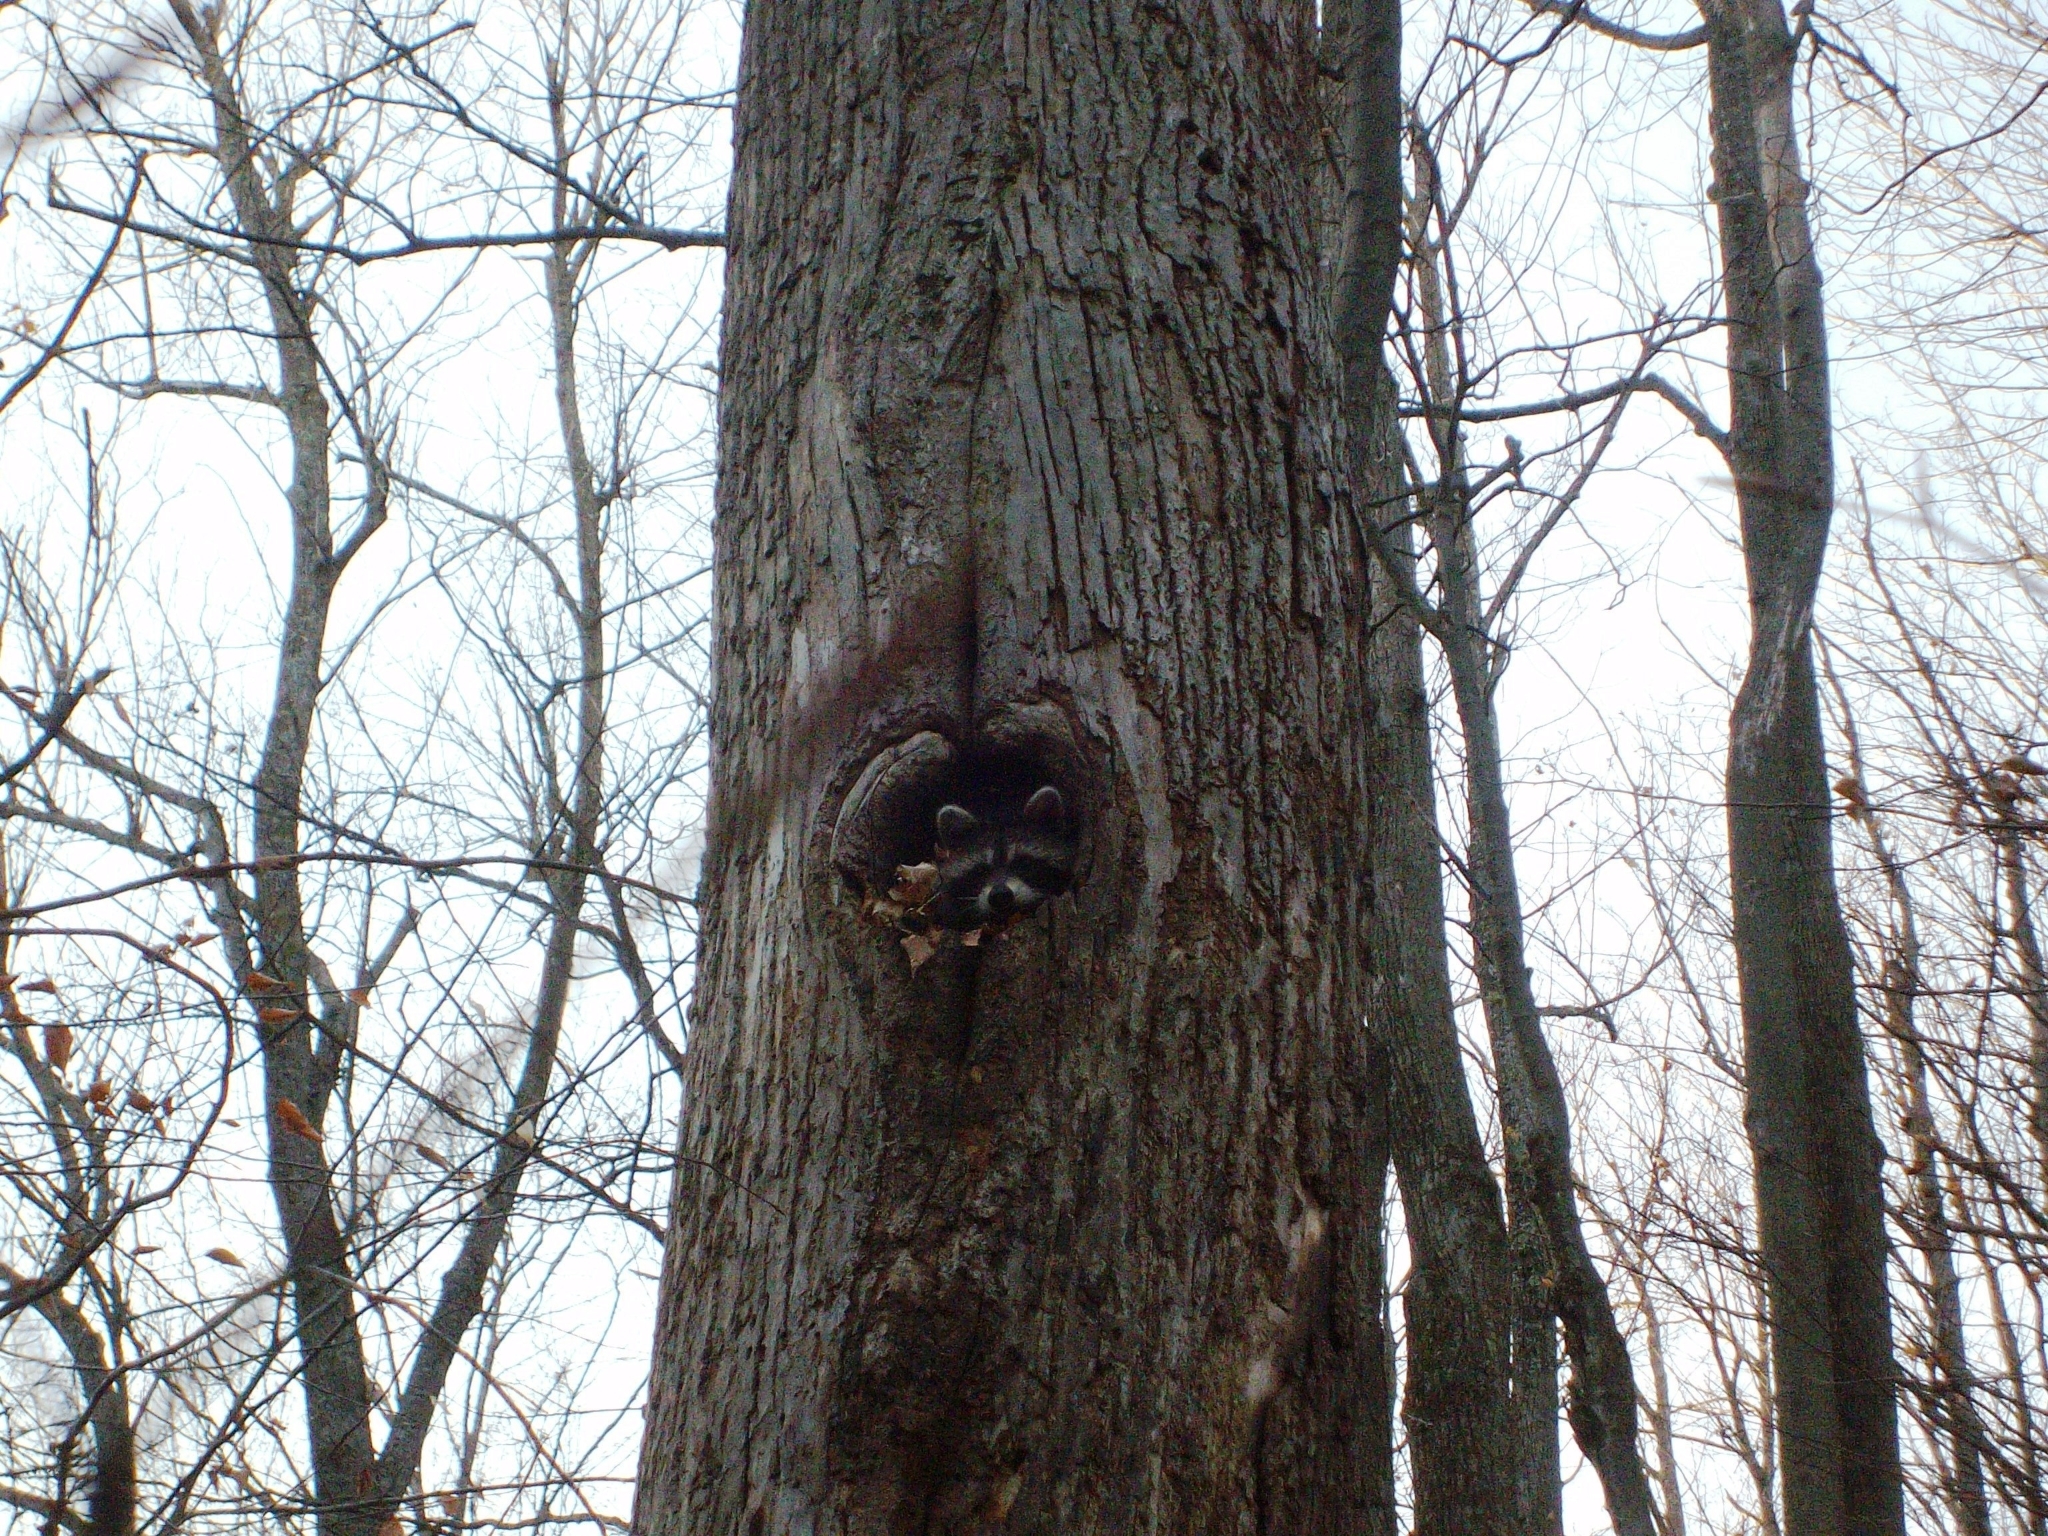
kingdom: Animalia
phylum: Chordata
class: Mammalia
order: Carnivora
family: Procyonidae
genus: Procyon
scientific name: Procyon lotor
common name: Raccoon
